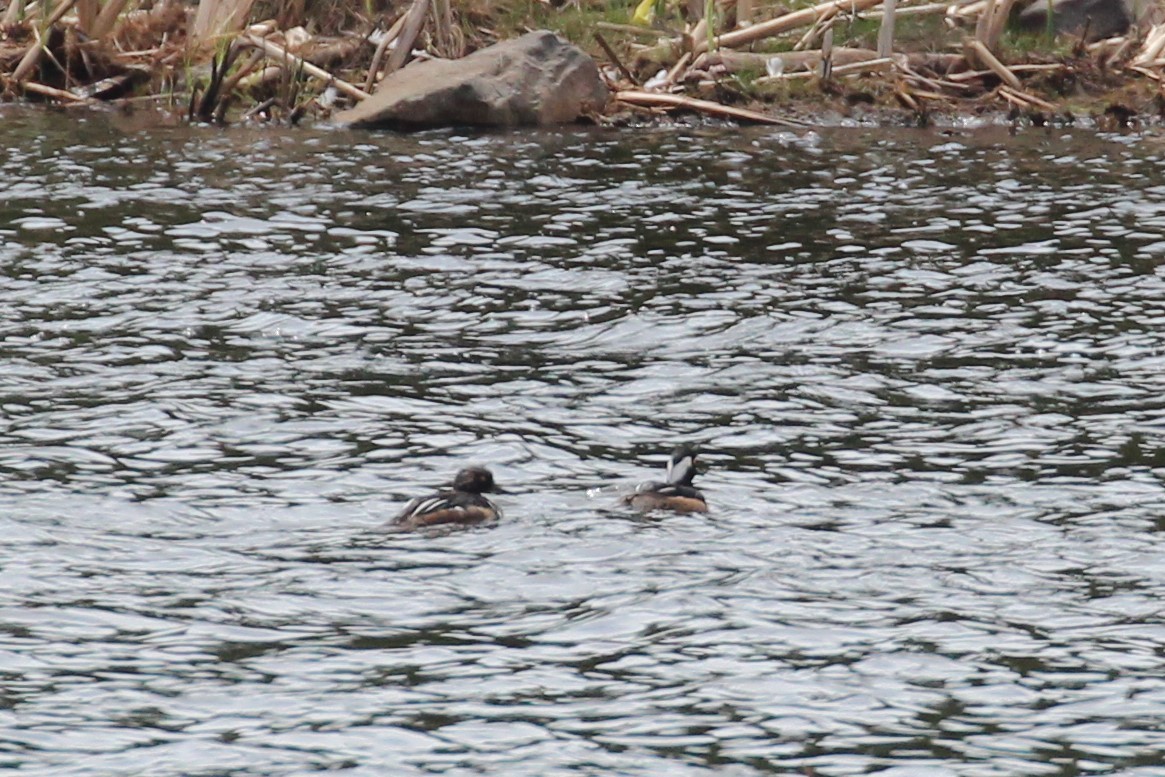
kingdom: Animalia
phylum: Chordata
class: Aves
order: Anseriformes
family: Anatidae
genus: Lophodytes
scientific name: Lophodytes cucullatus
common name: Hooded merganser
